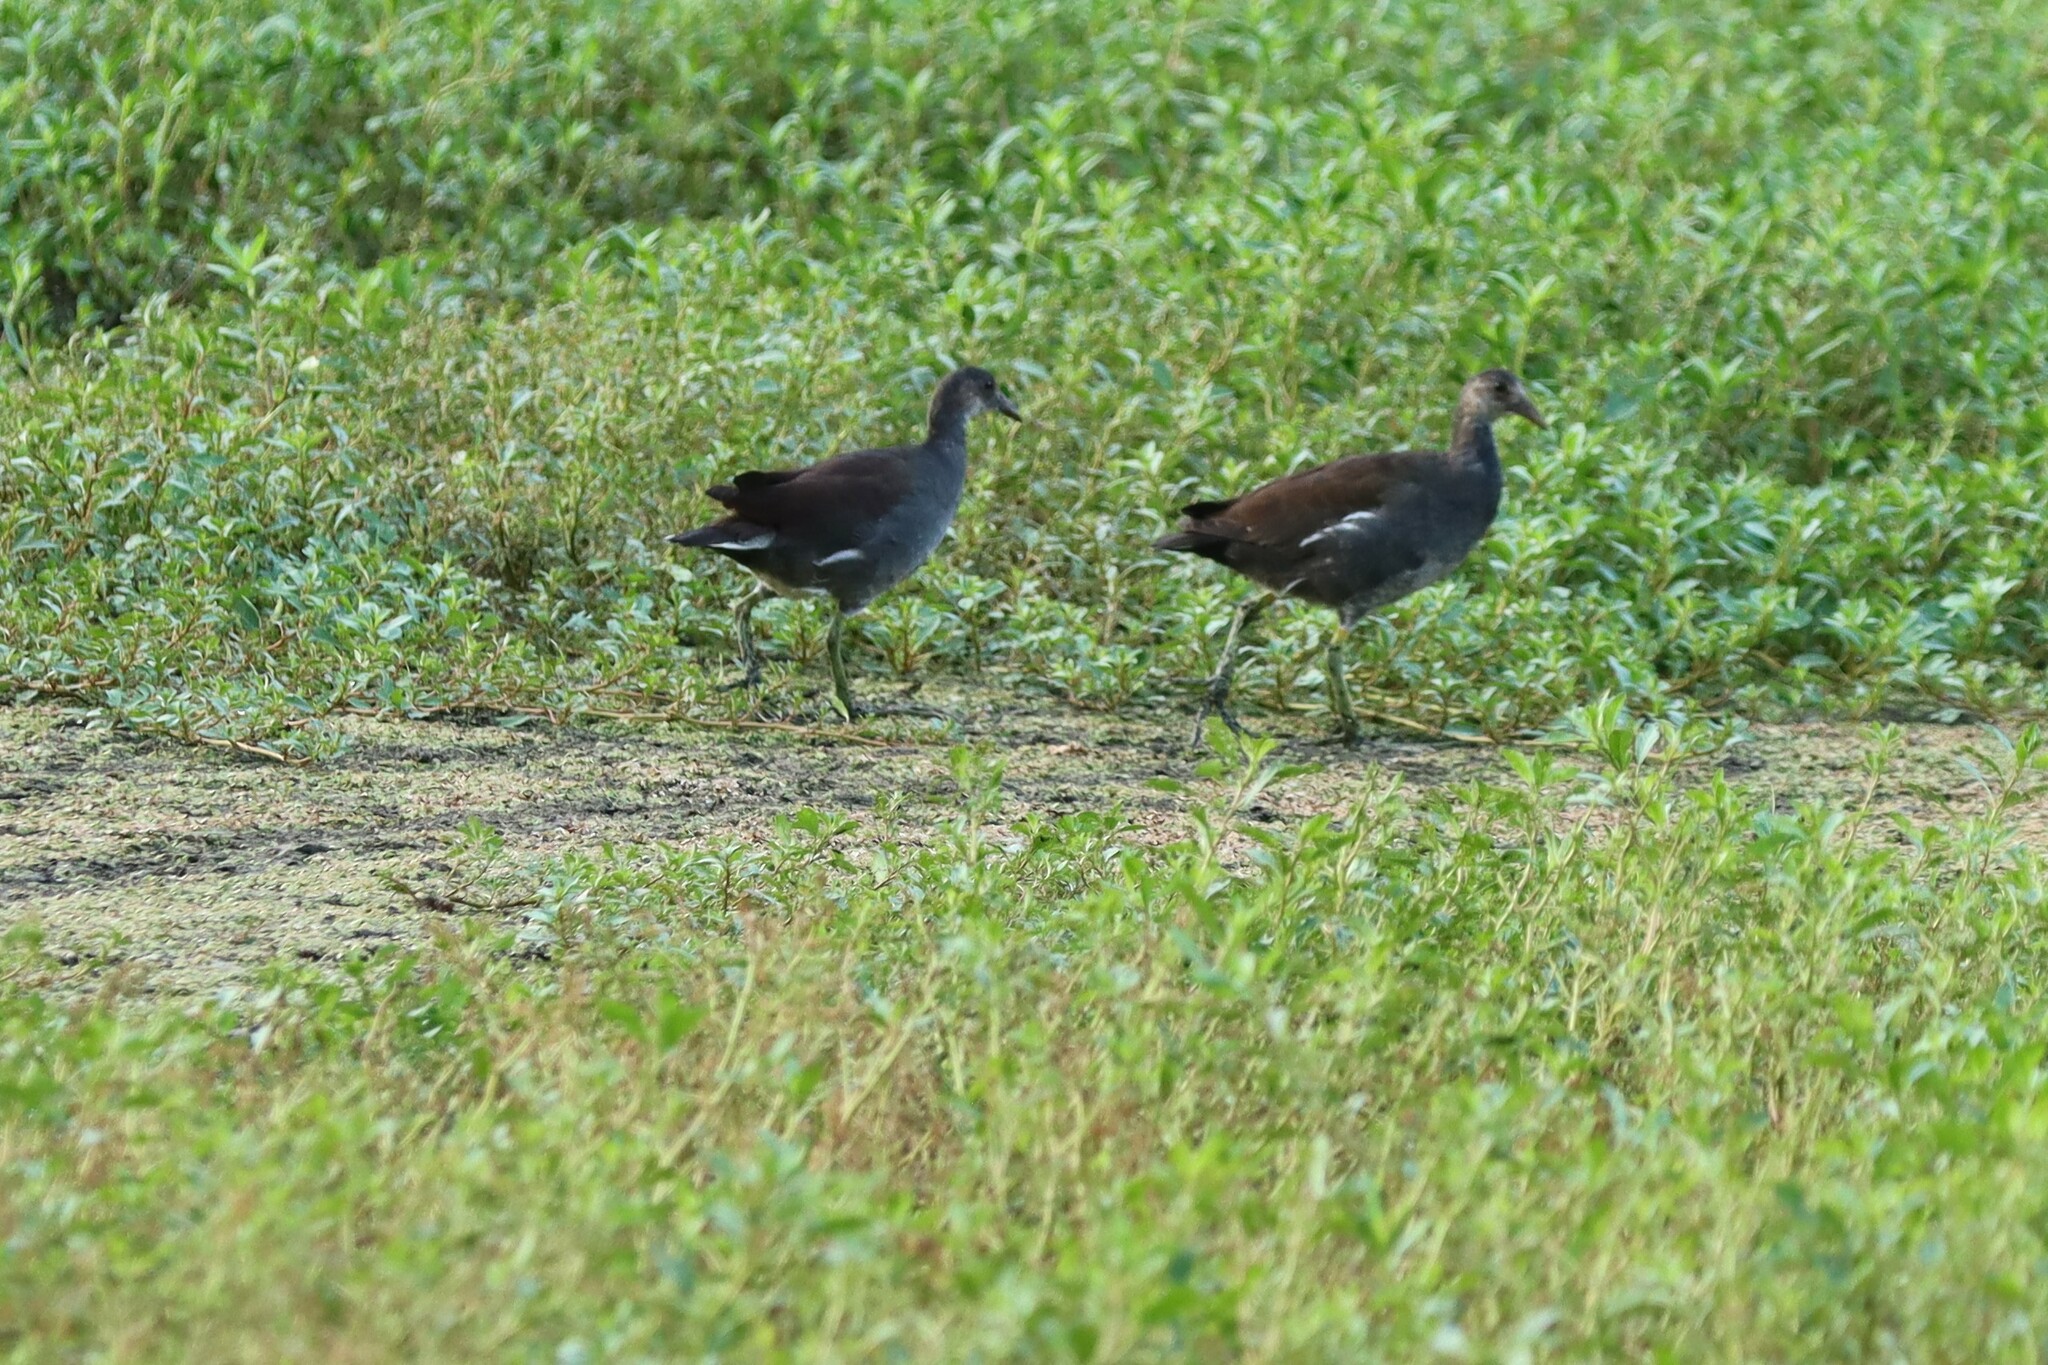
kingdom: Animalia
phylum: Chordata
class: Aves
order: Gruiformes
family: Rallidae
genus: Gallinula
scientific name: Gallinula chloropus
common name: Common moorhen
